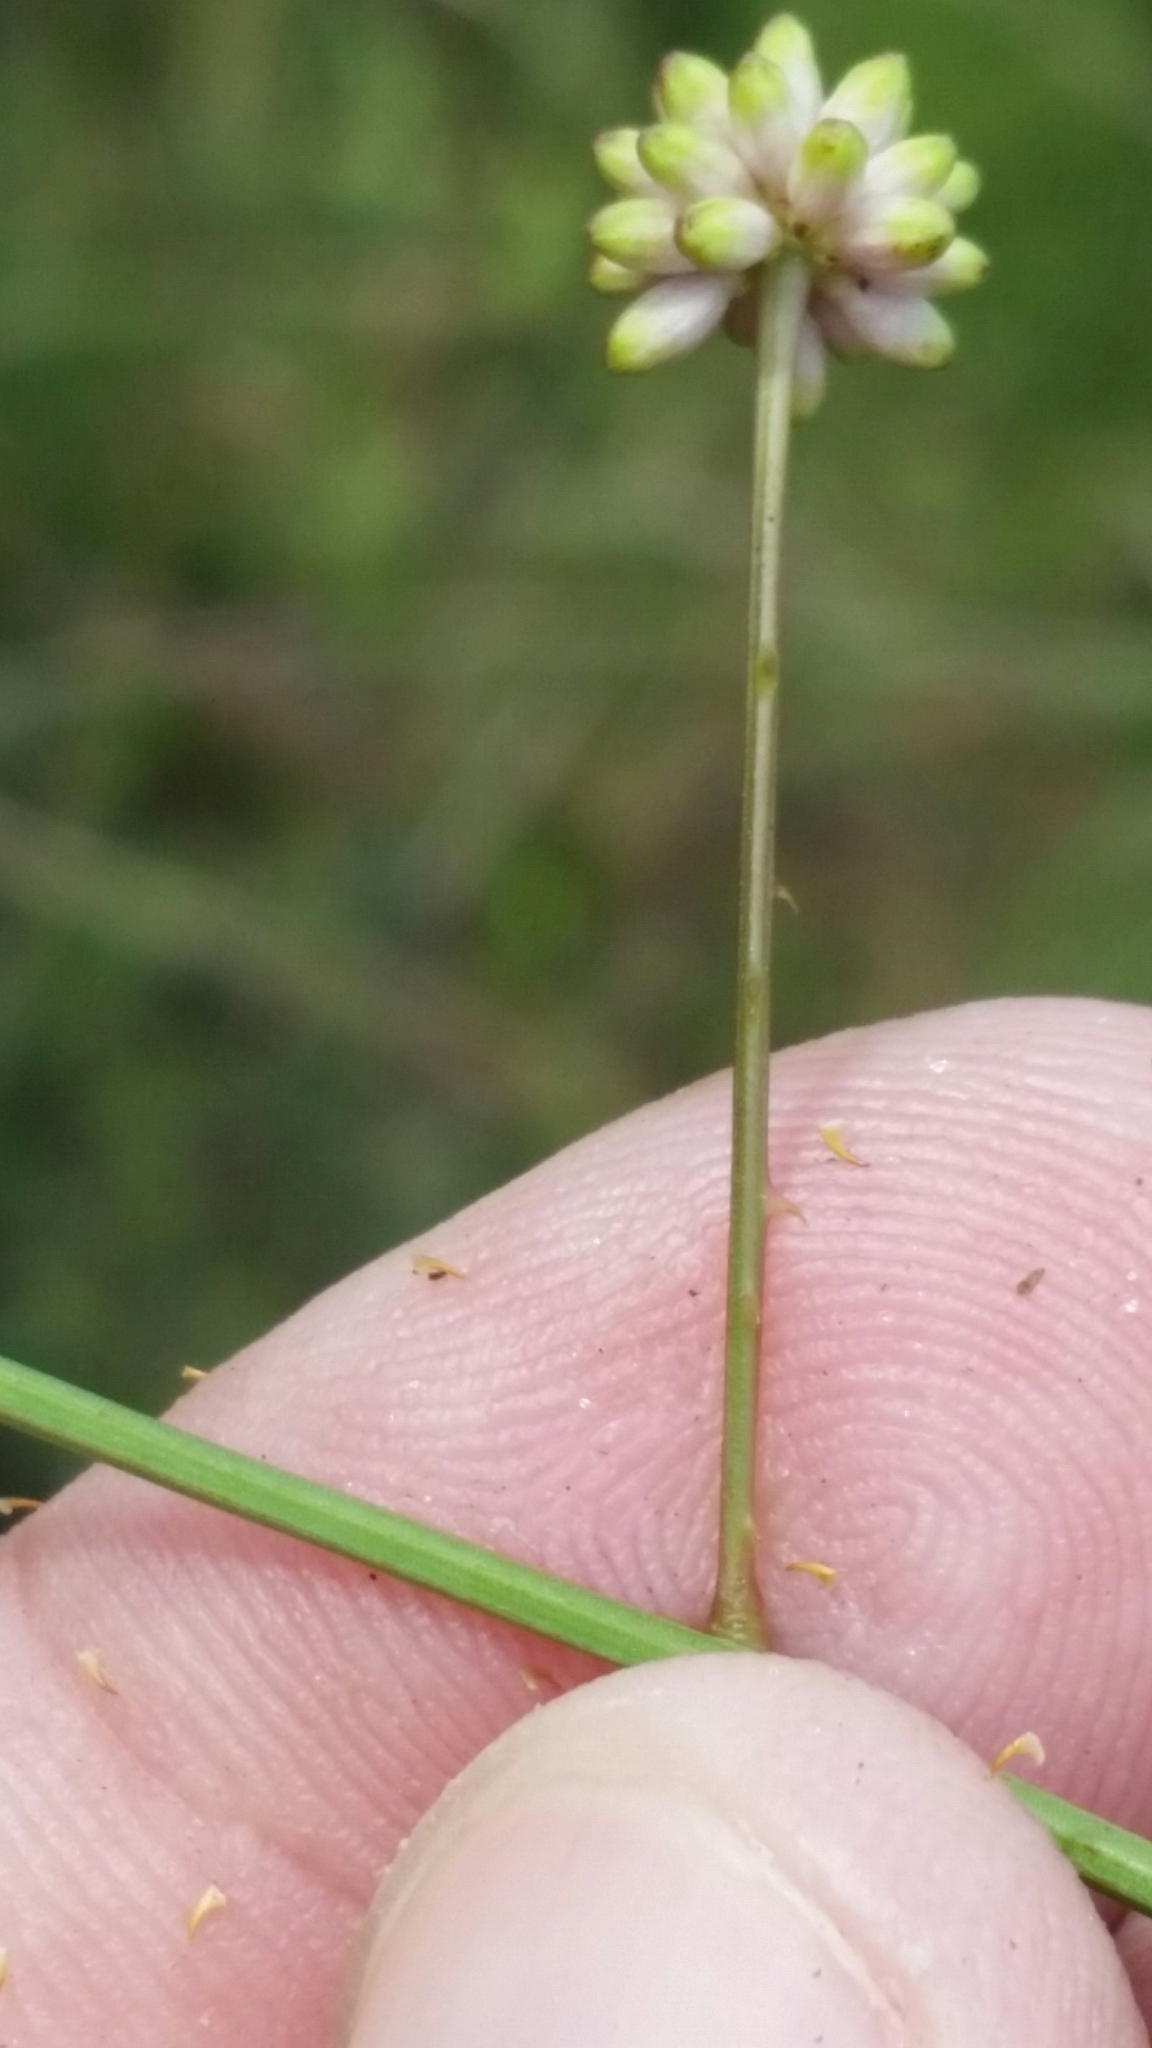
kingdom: Plantae
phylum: Tracheophyta
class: Magnoliopsida
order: Fabales
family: Fabaceae
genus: Mimosa
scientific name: Mimosa floridana
